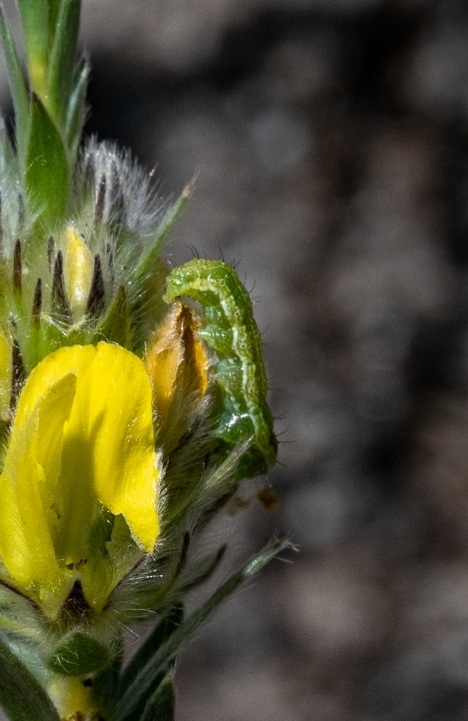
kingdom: Animalia
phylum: Arthropoda
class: Insecta
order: Lepidoptera
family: Noctuidae
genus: Helicoverpa
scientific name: Helicoverpa armigera
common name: Cotton bollworm
